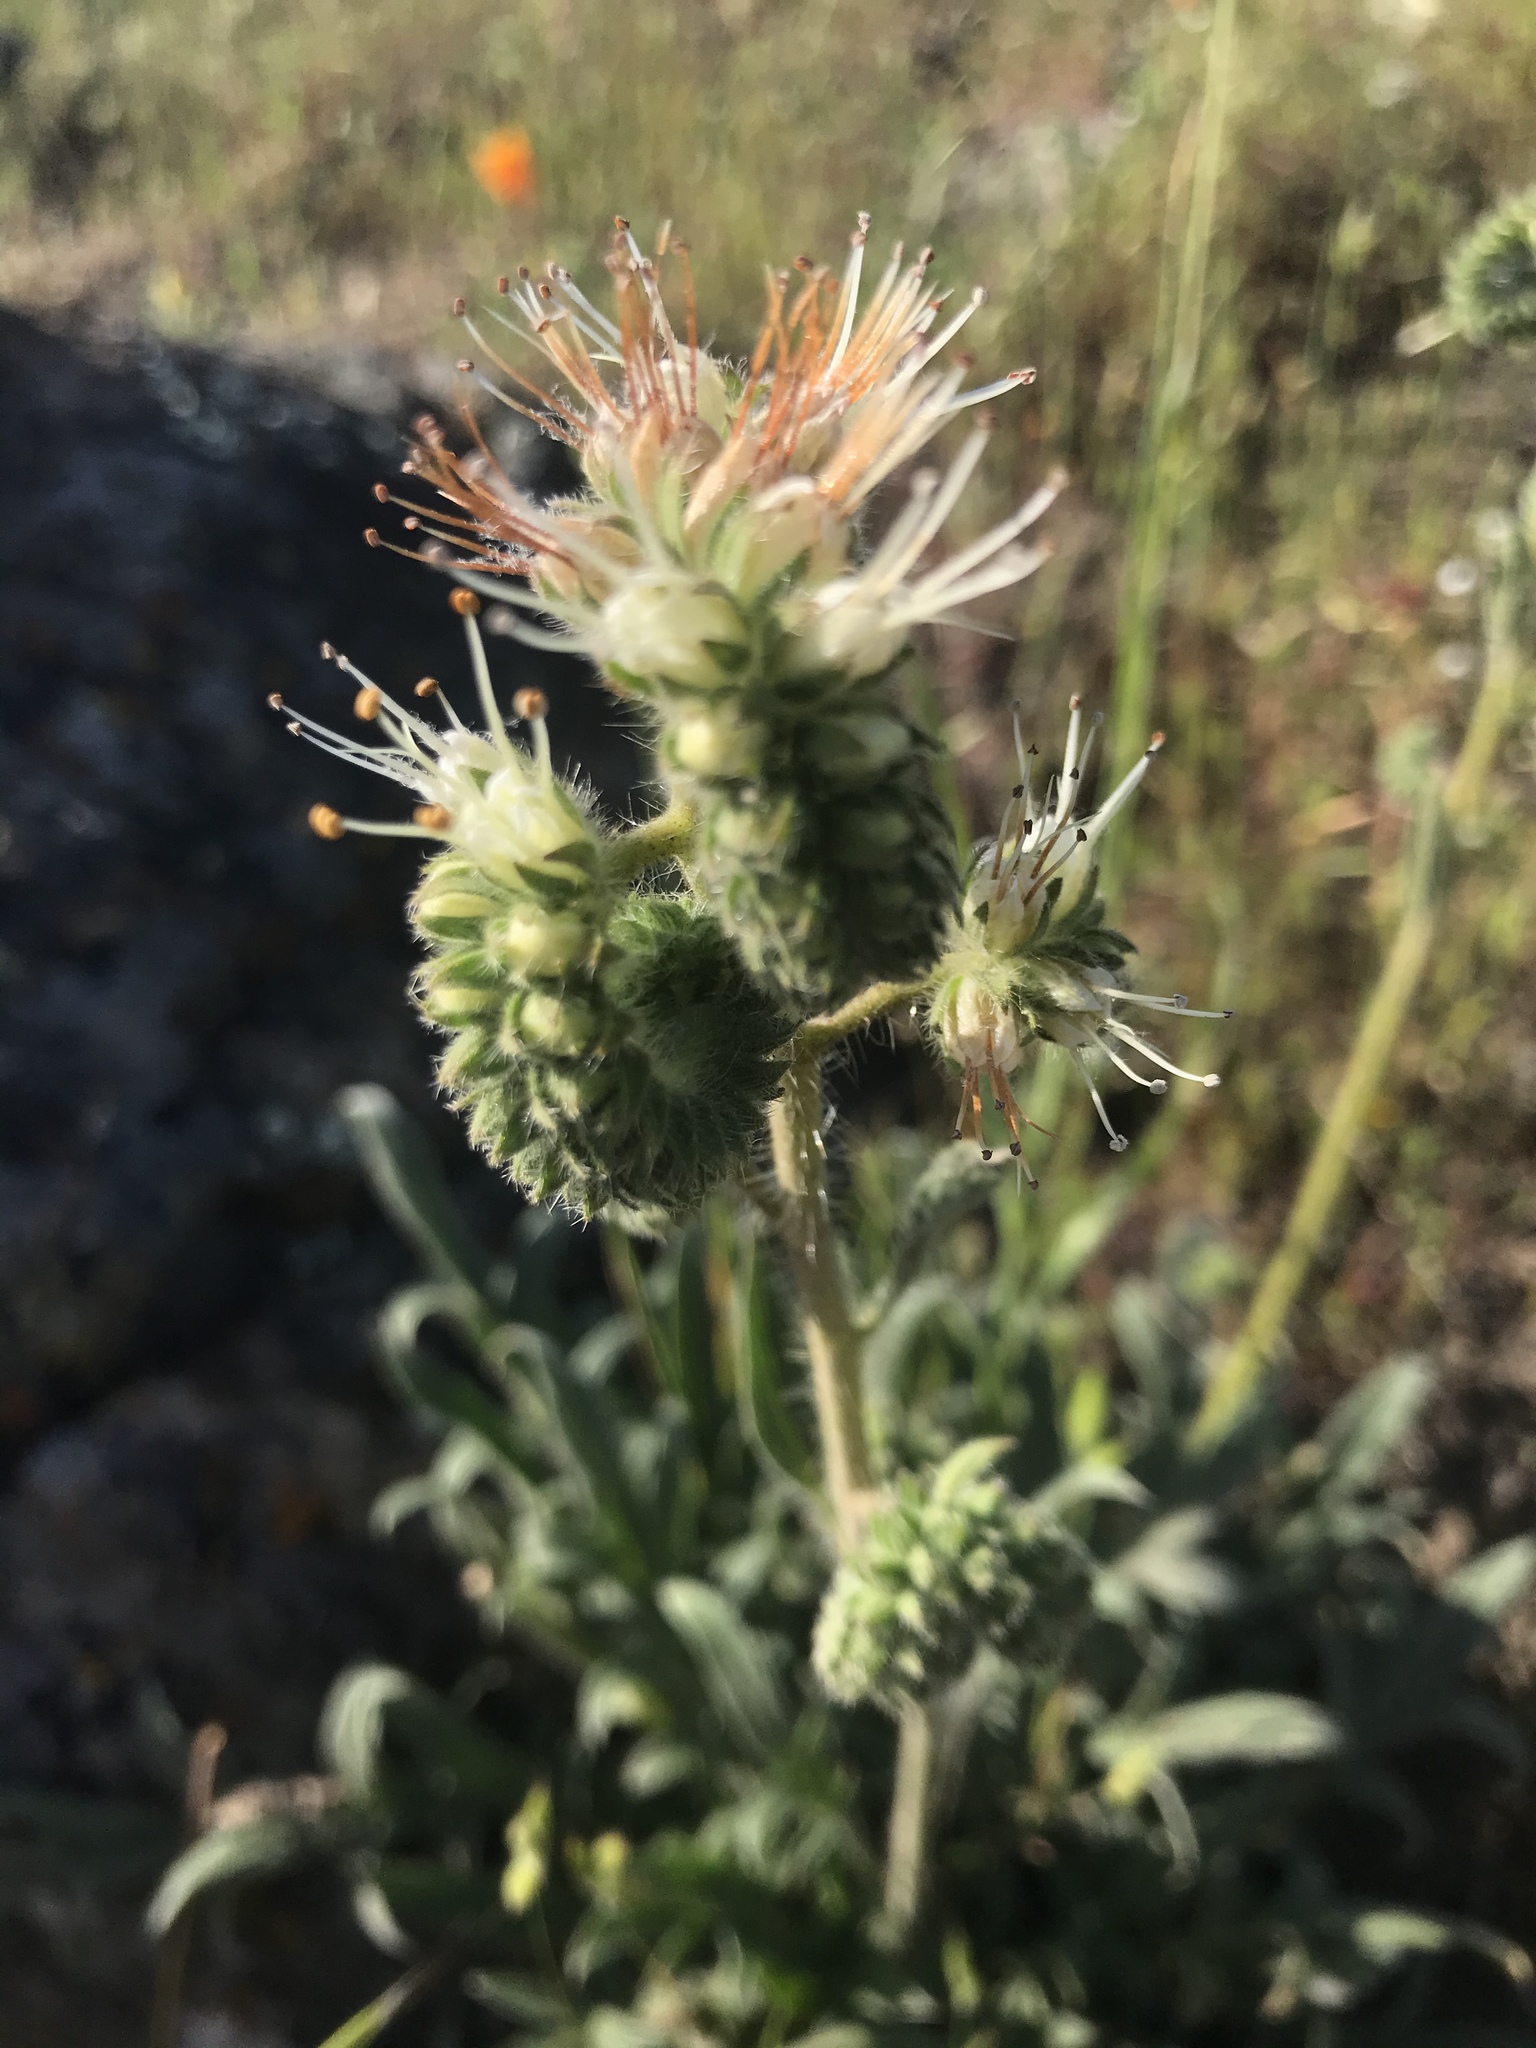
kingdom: Plantae
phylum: Tracheophyta
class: Magnoliopsida
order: Boraginales
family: Hydrophyllaceae
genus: Phacelia
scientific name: Phacelia imbricata
